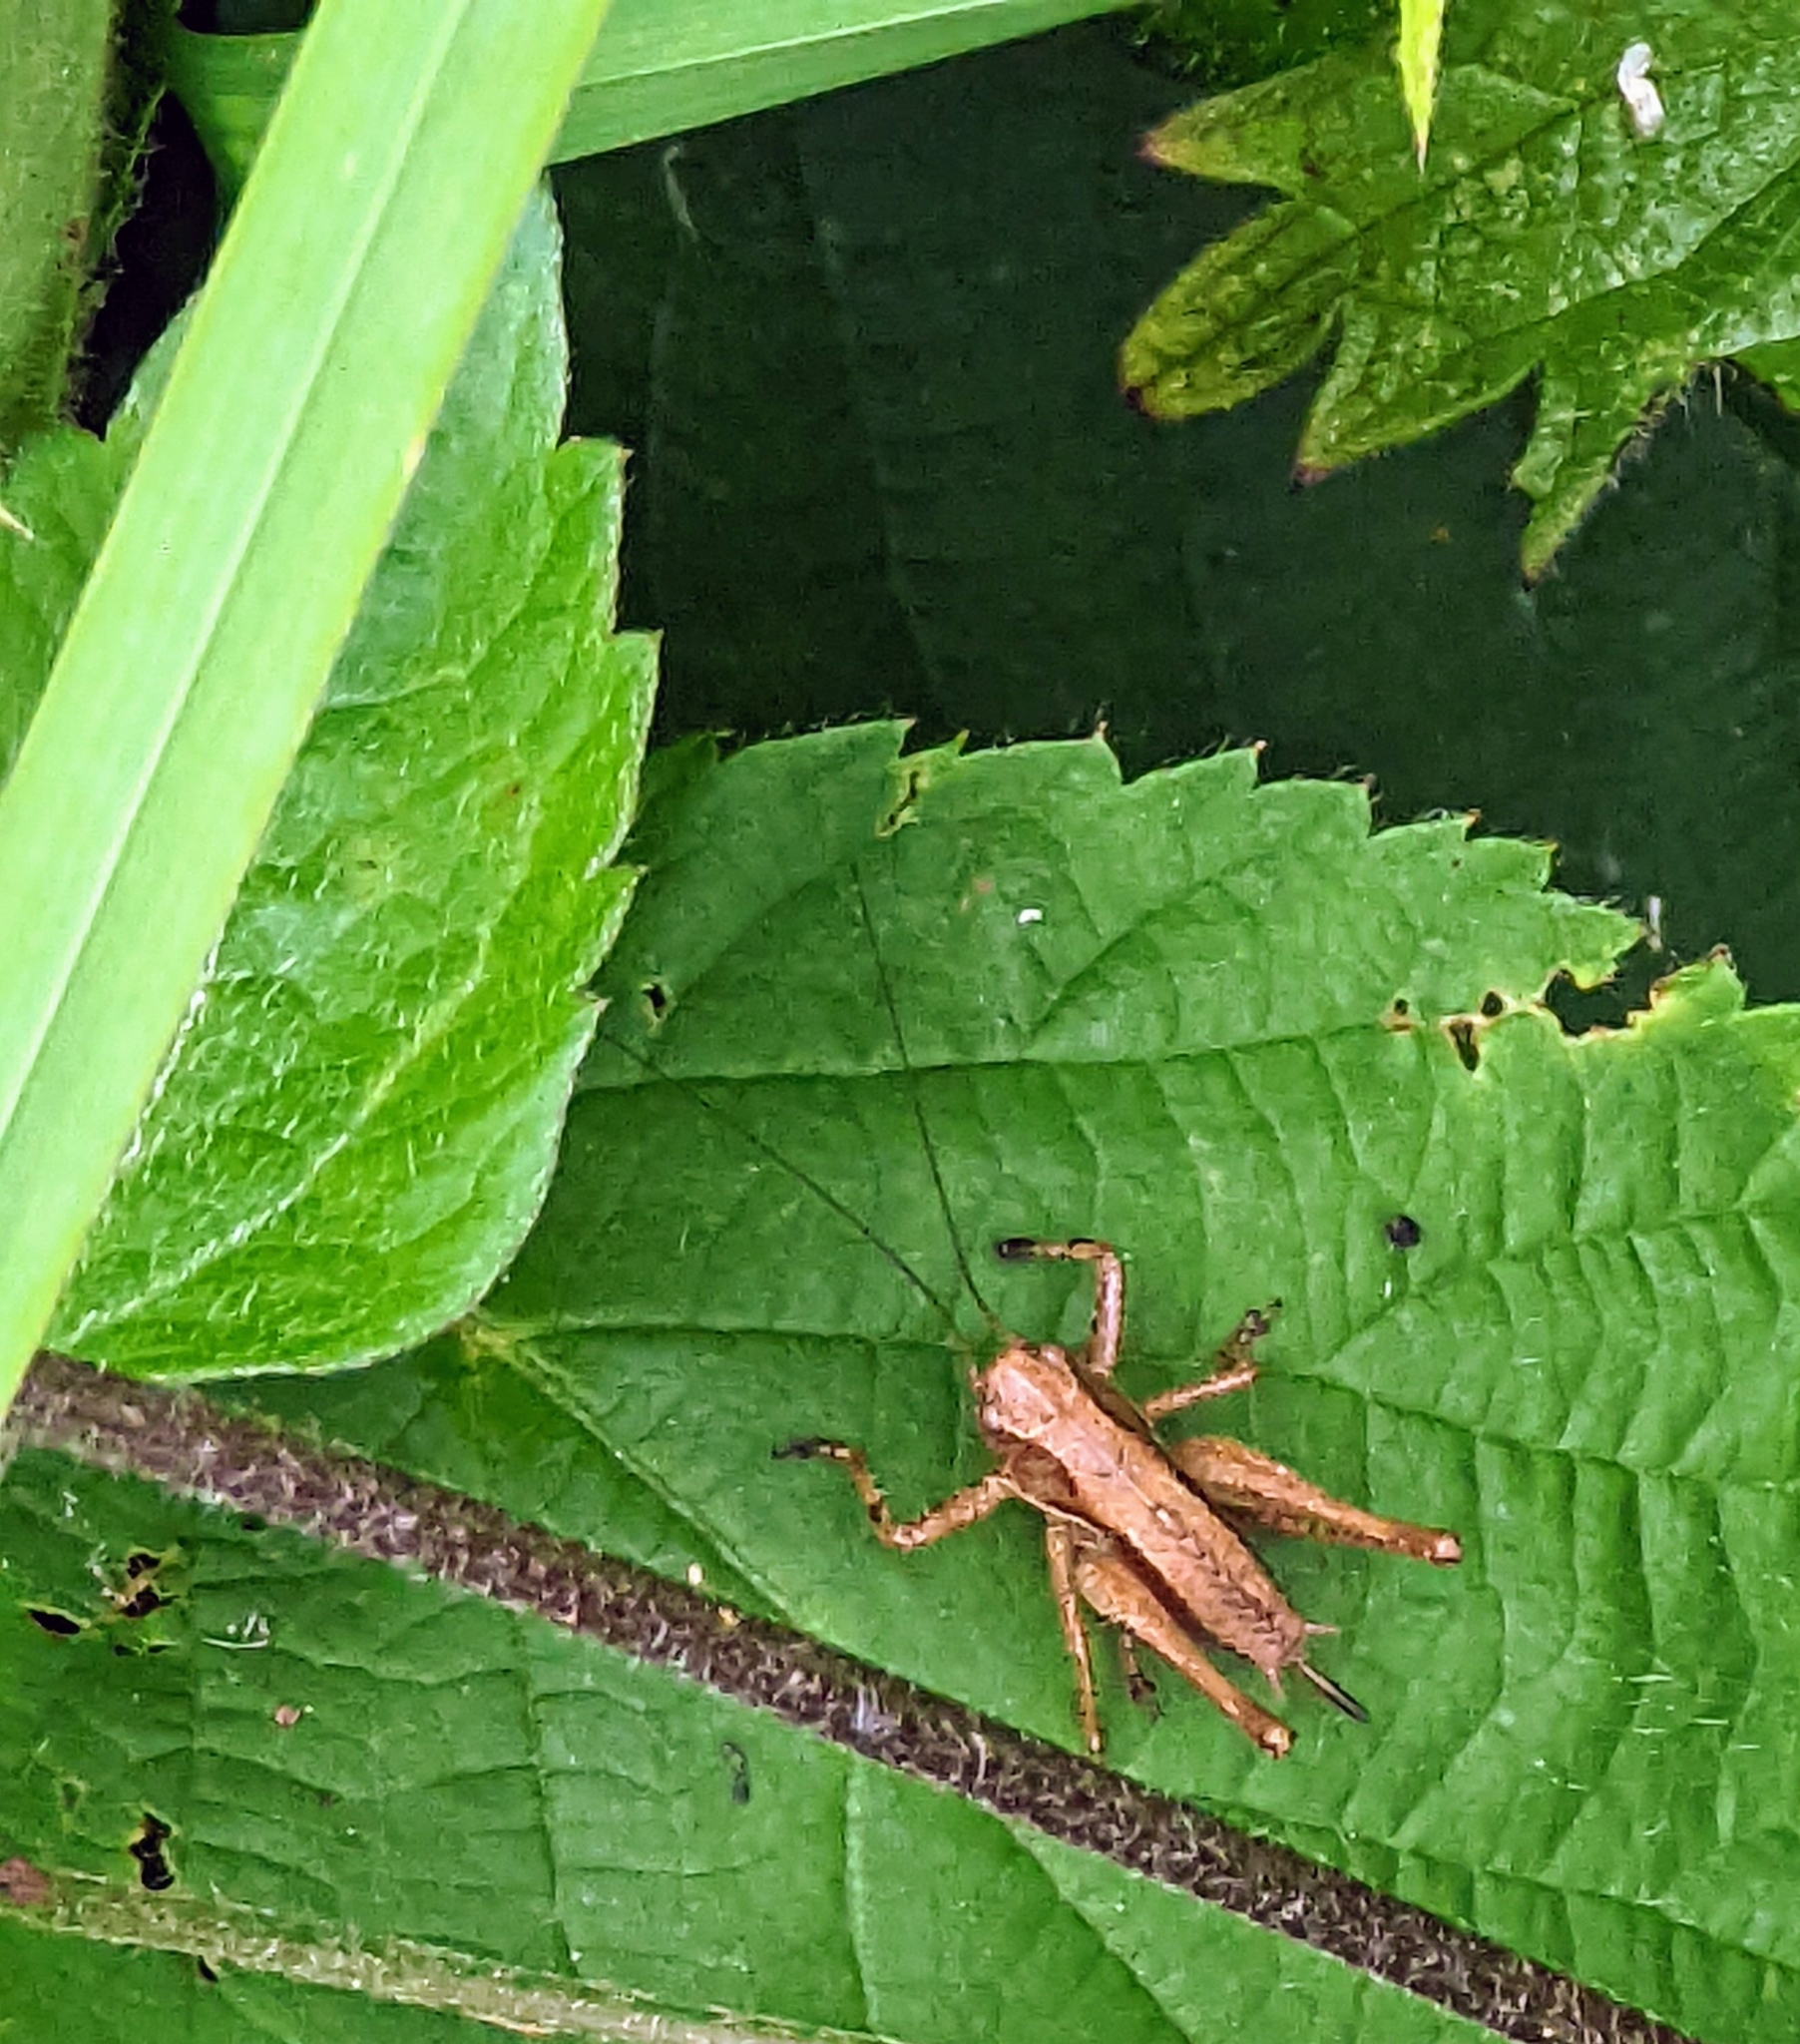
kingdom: Animalia
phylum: Arthropoda
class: Insecta
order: Orthoptera
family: Tettigoniidae
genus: Pholidoptera
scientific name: Pholidoptera griseoaptera
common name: Dark bush-cricket
